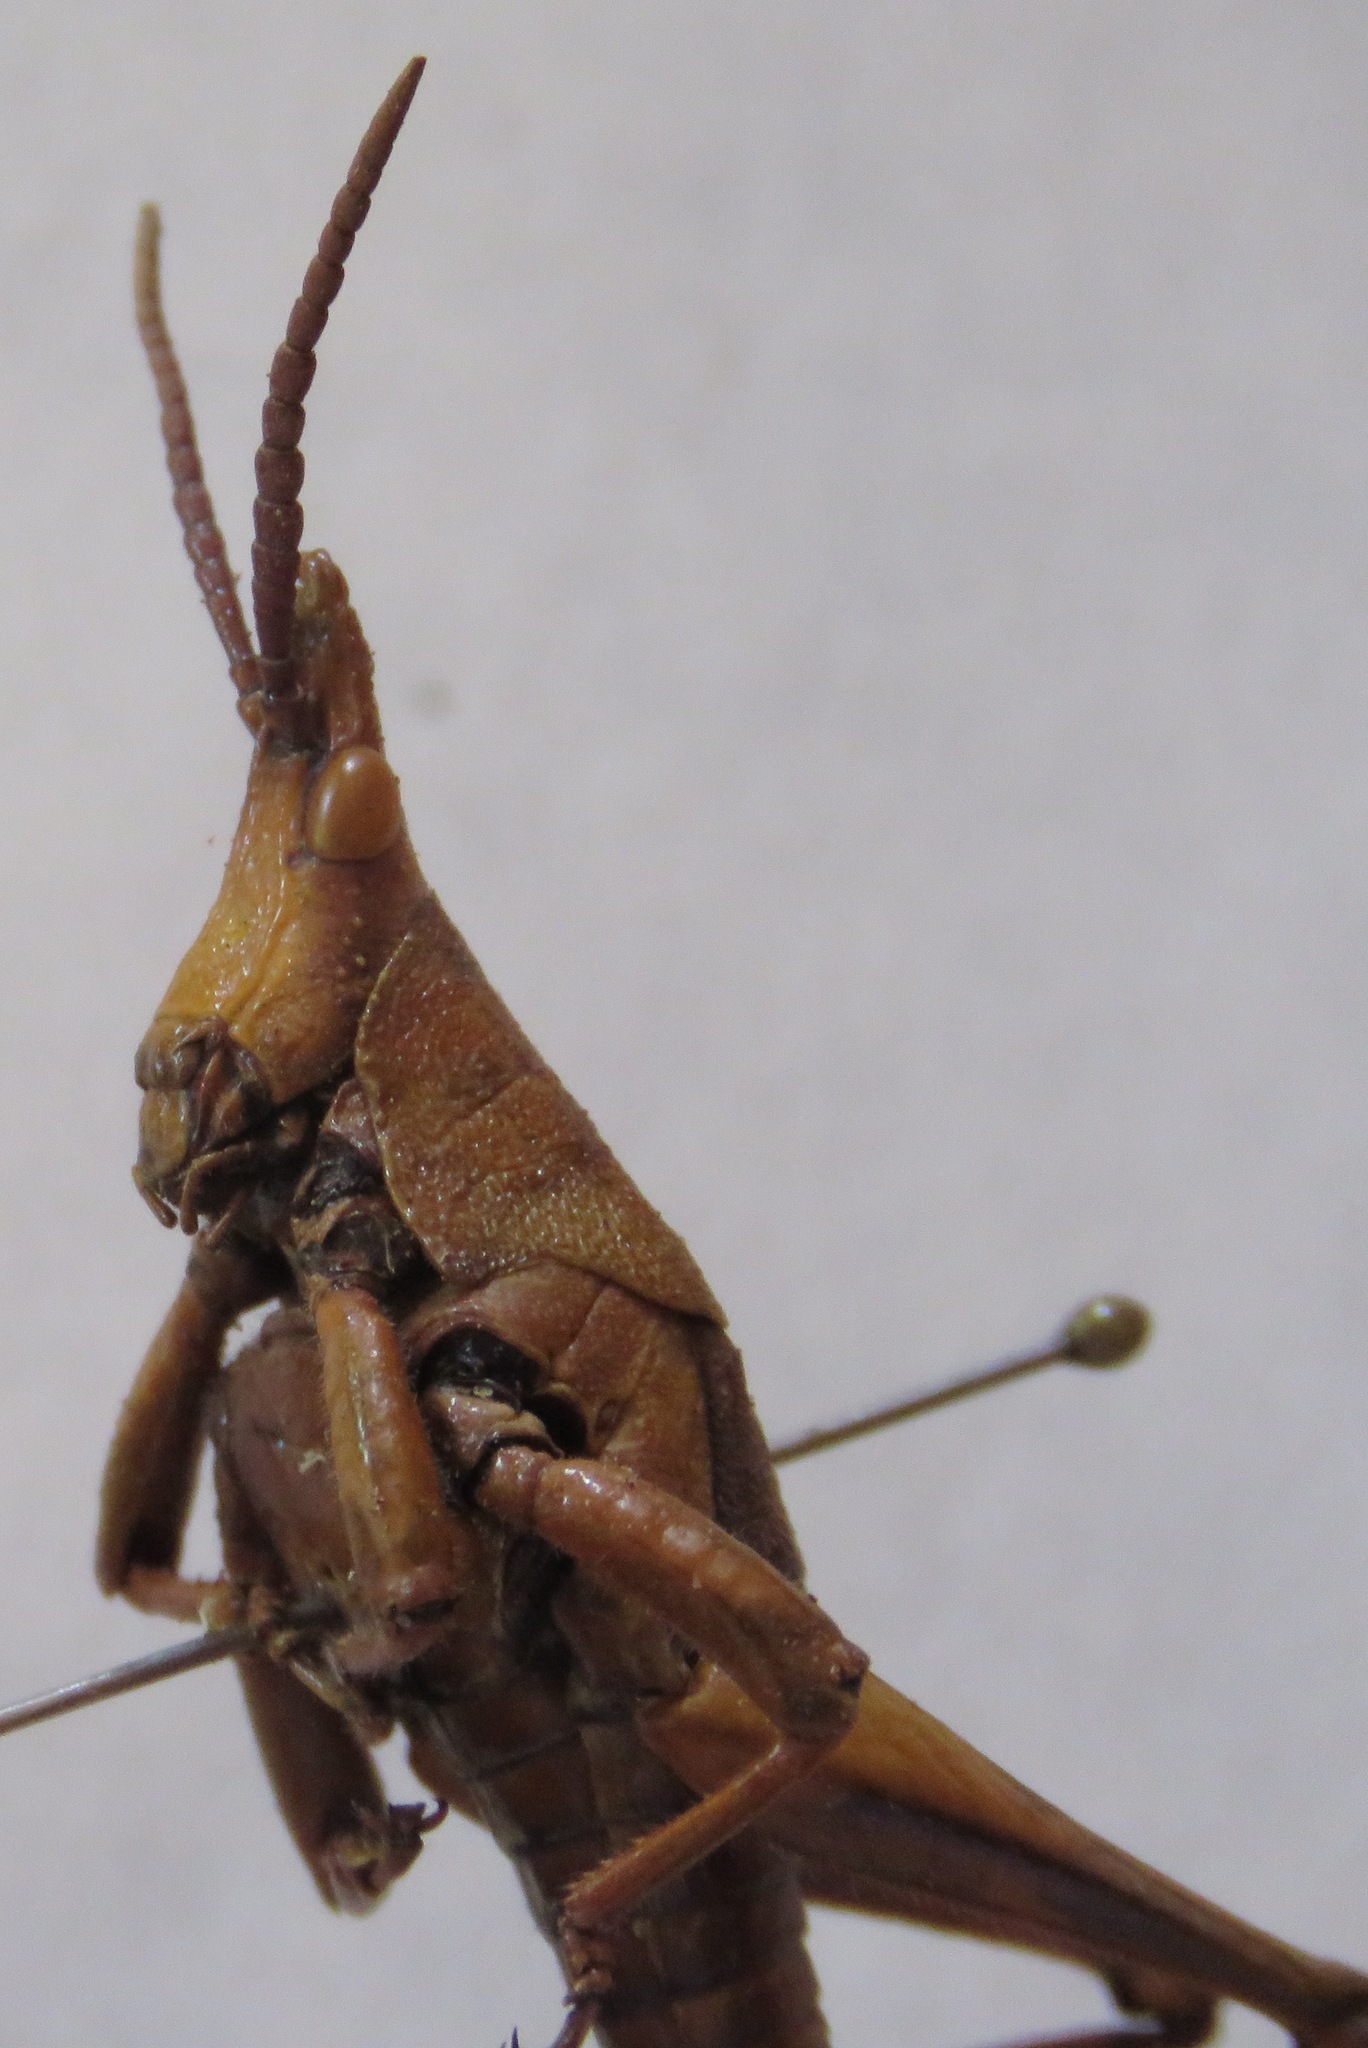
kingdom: Animalia
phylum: Arthropoda
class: Insecta
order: Orthoptera
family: Pyrgomorphidae
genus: Prosphena
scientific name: Prosphena scudderi
